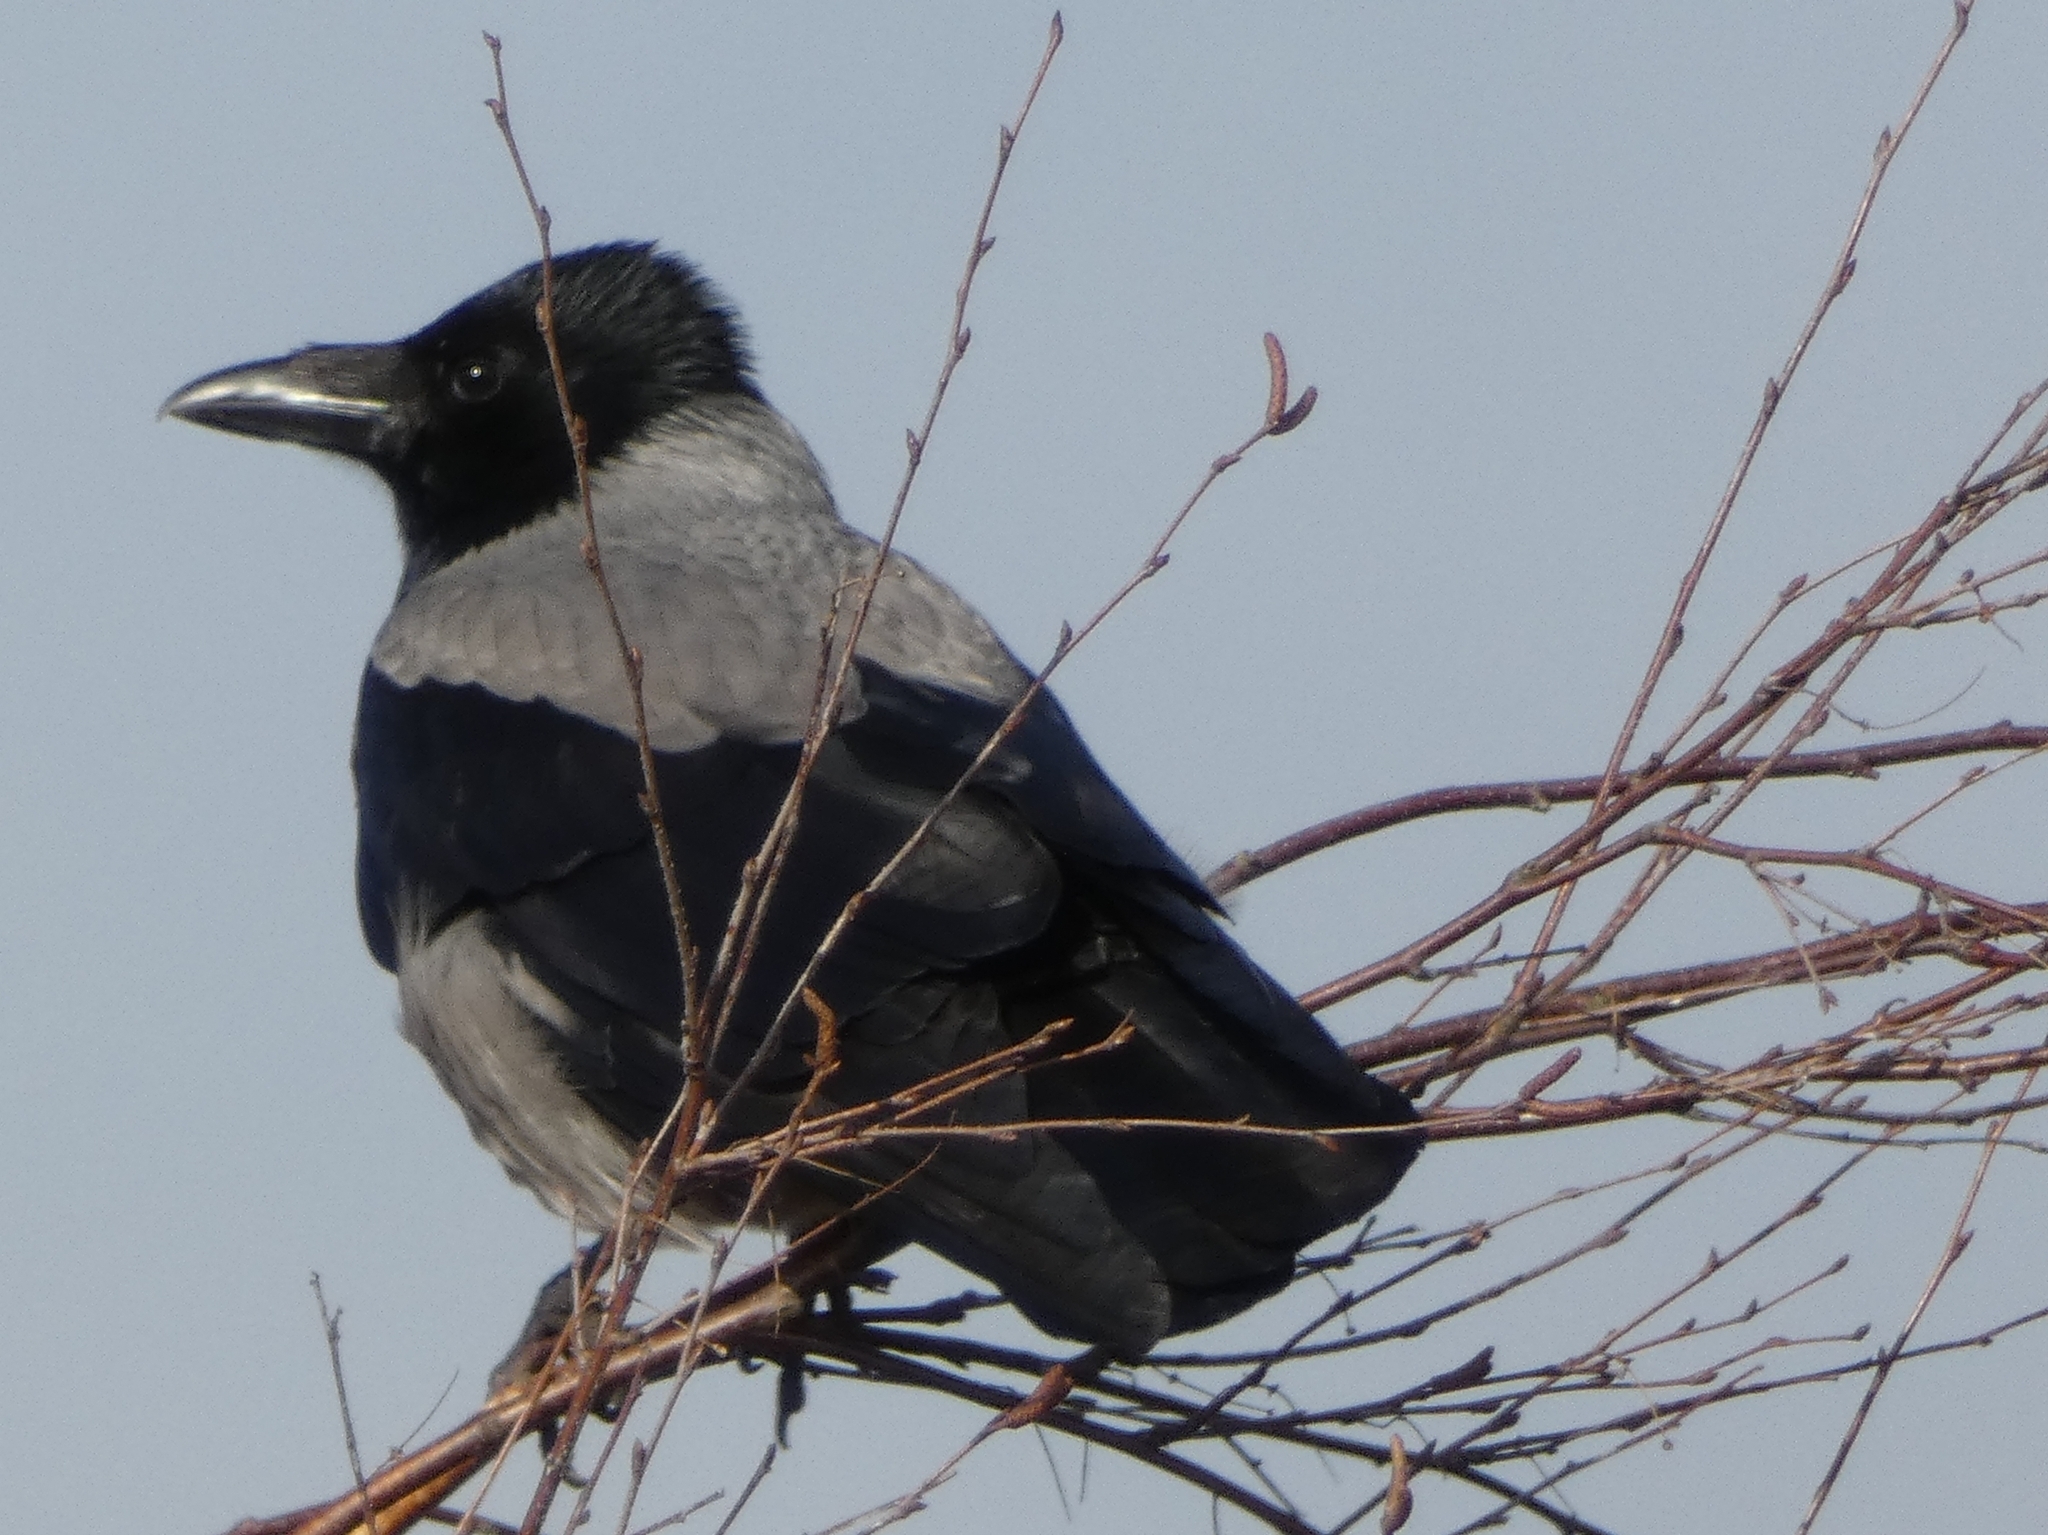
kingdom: Animalia
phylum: Chordata
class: Aves
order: Passeriformes
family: Corvidae
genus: Corvus
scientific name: Corvus cornix
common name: Hooded crow
